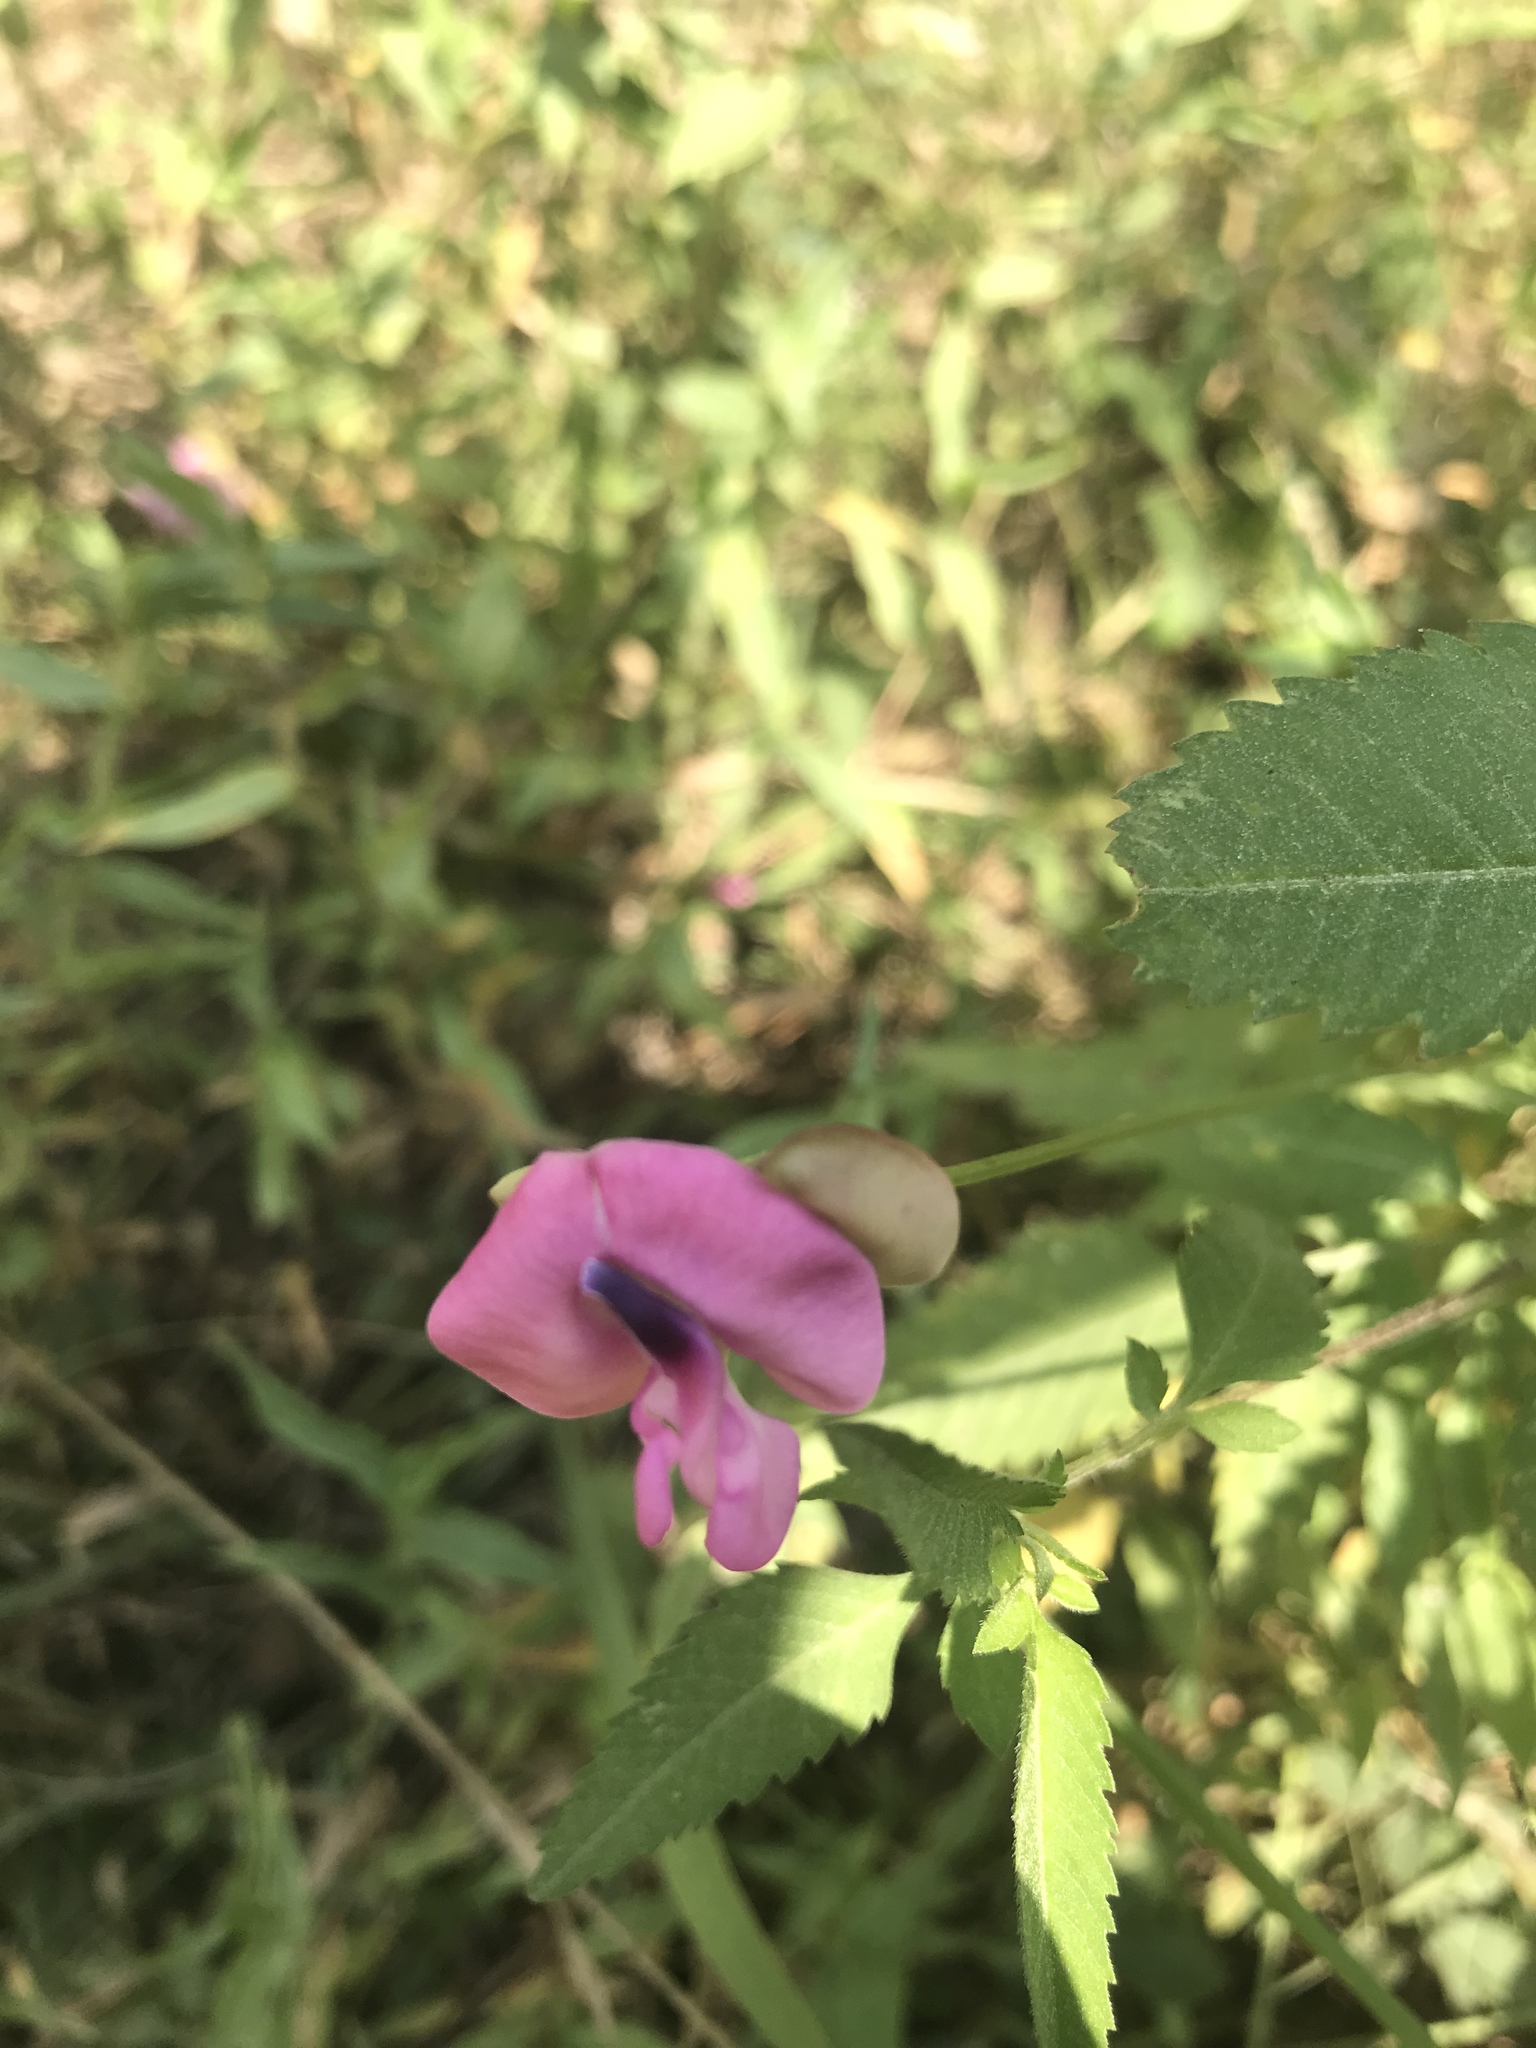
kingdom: Plantae
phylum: Tracheophyta
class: Magnoliopsida
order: Fabales
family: Fabaceae
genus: Strophostyles
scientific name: Strophostyles umbellata
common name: Perennial wild bean
